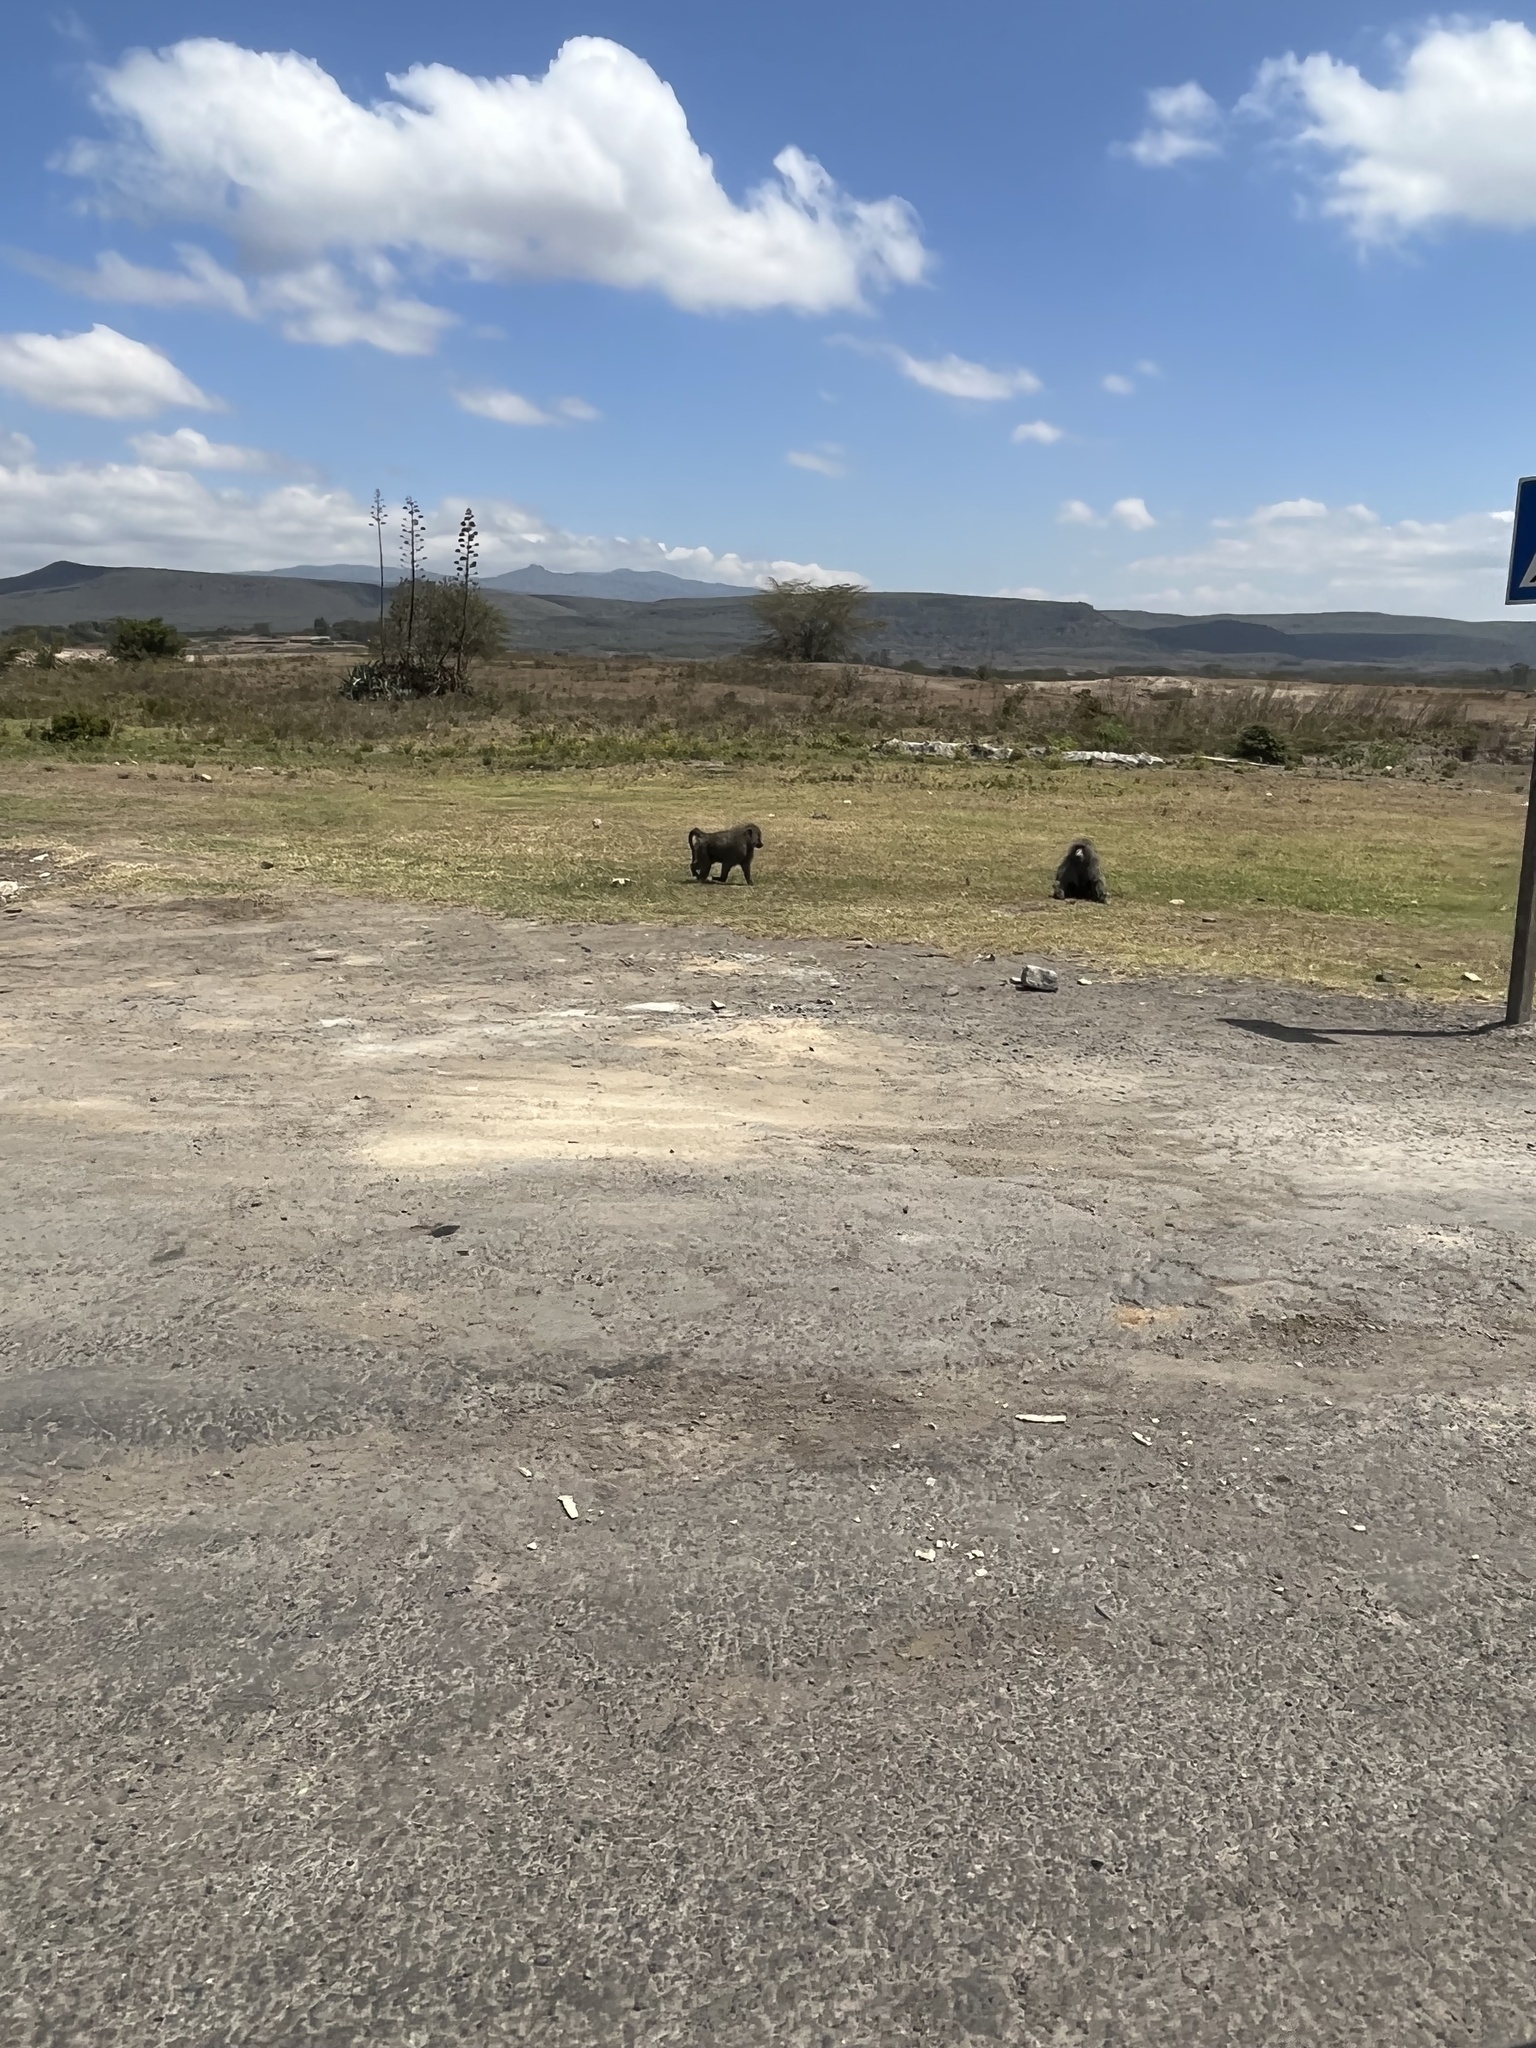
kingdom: Animalia
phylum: Chordata
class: Mammalia
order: Primates
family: Cercopithecidae
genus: Papio
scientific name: Papio anubis
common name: Olive baboon
